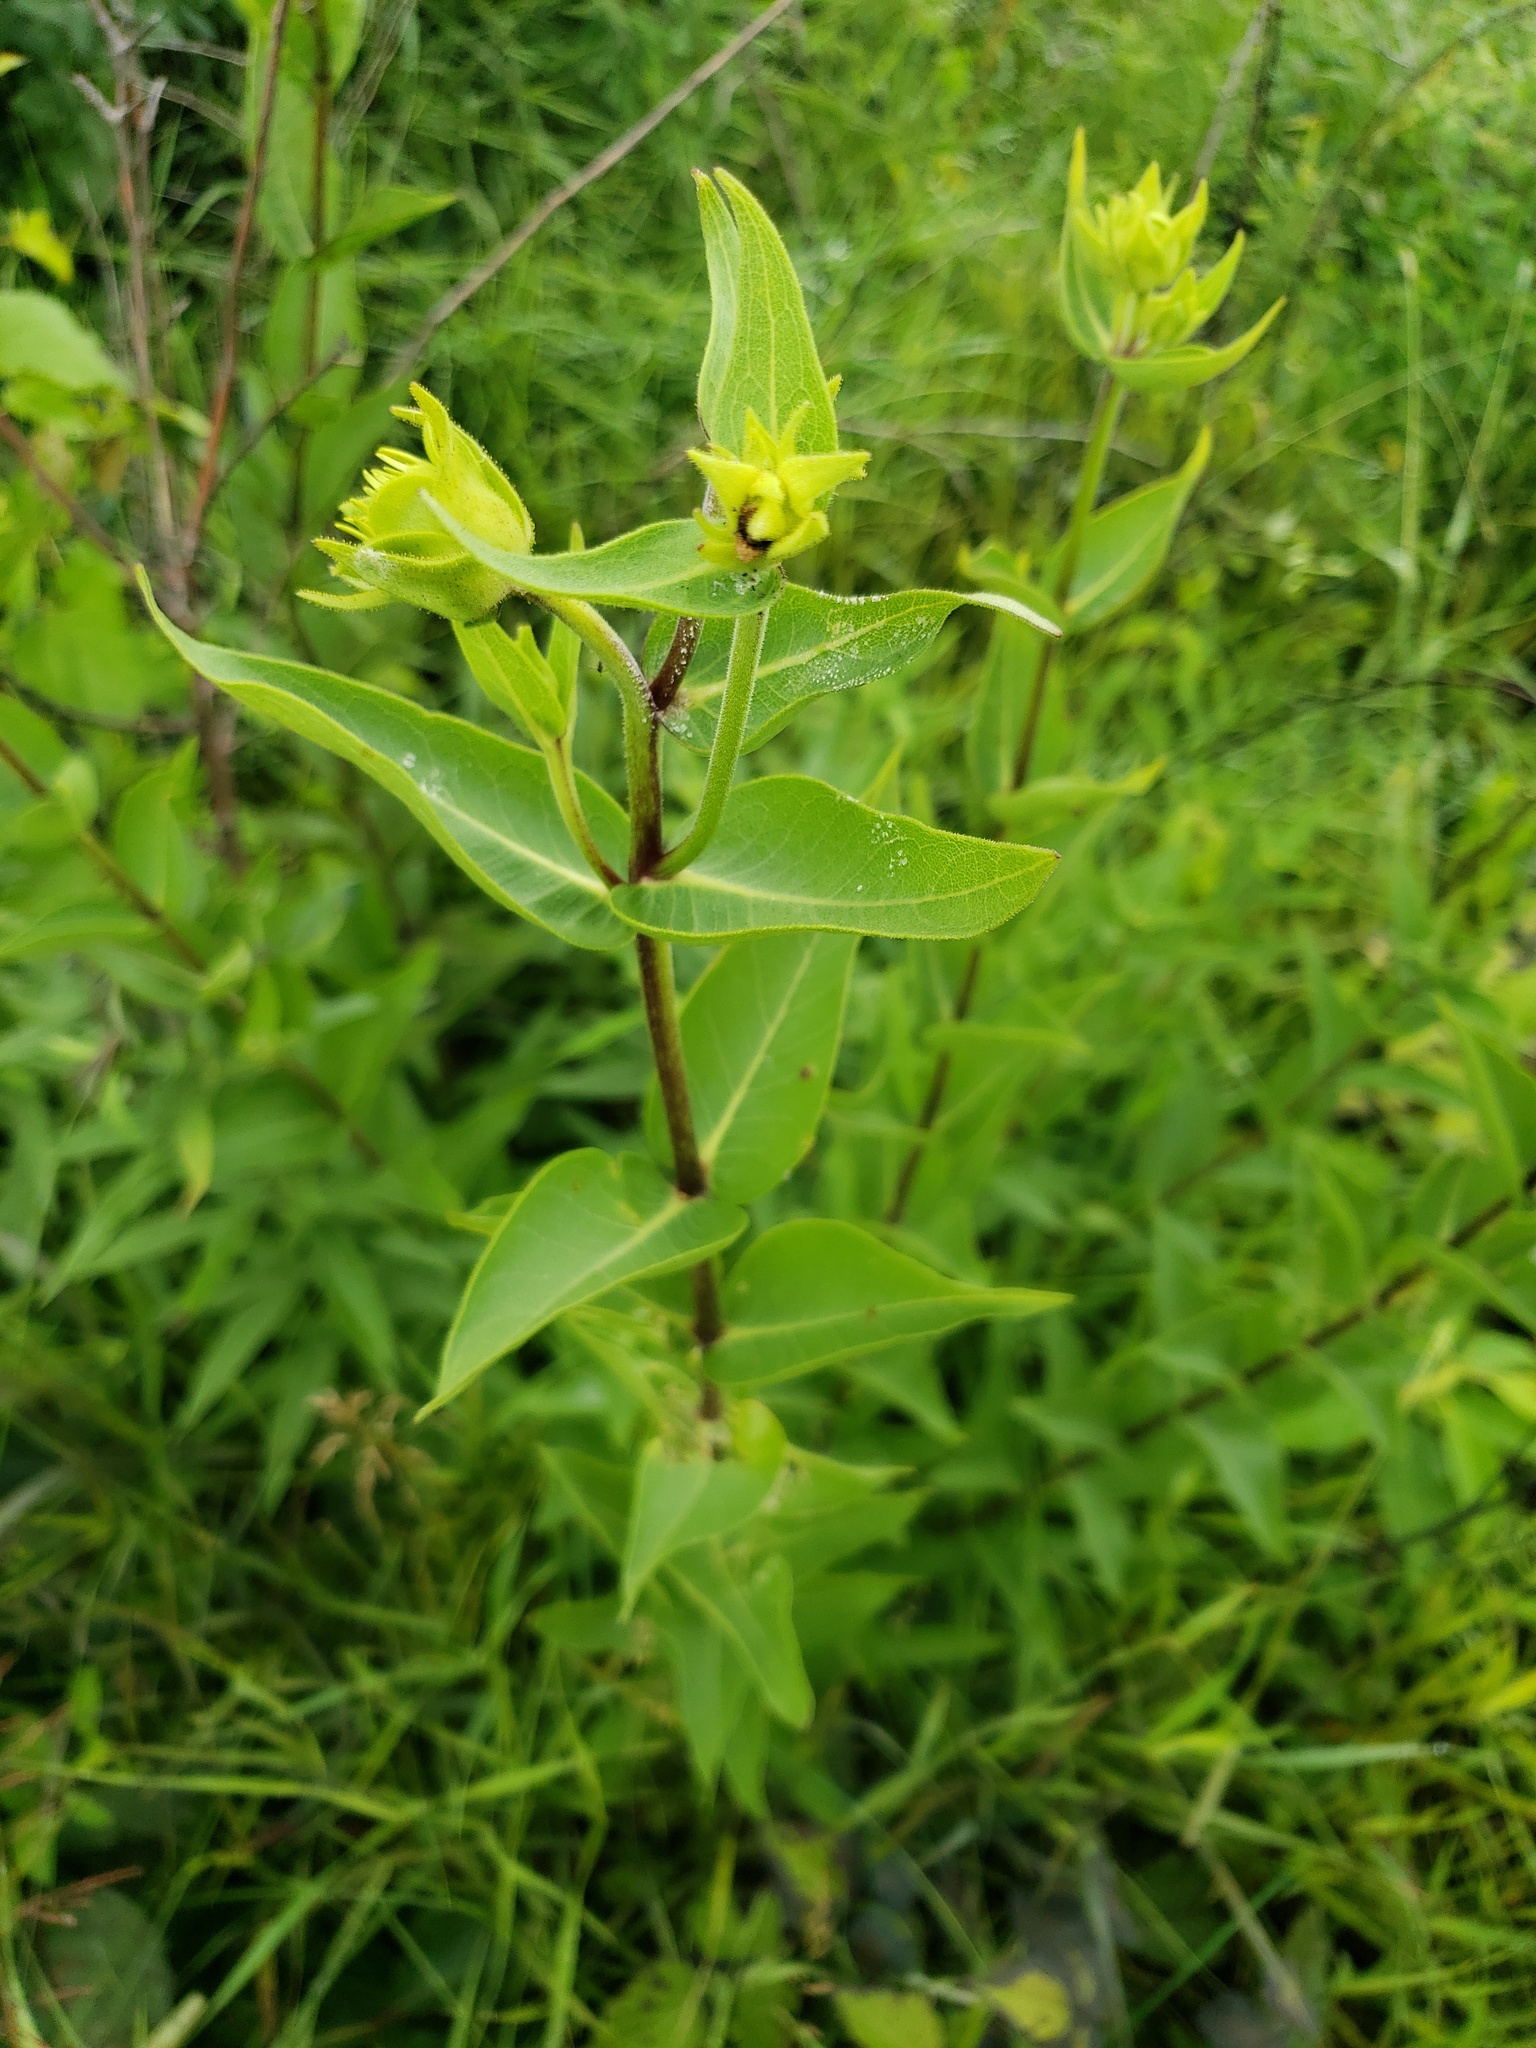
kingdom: Plantae
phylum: Tracheophyta
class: Magnoliopsida
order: Asterales
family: Asteraceae
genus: Silphium
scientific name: Silphium integrifolium
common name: Whole-leaf rosinweed
